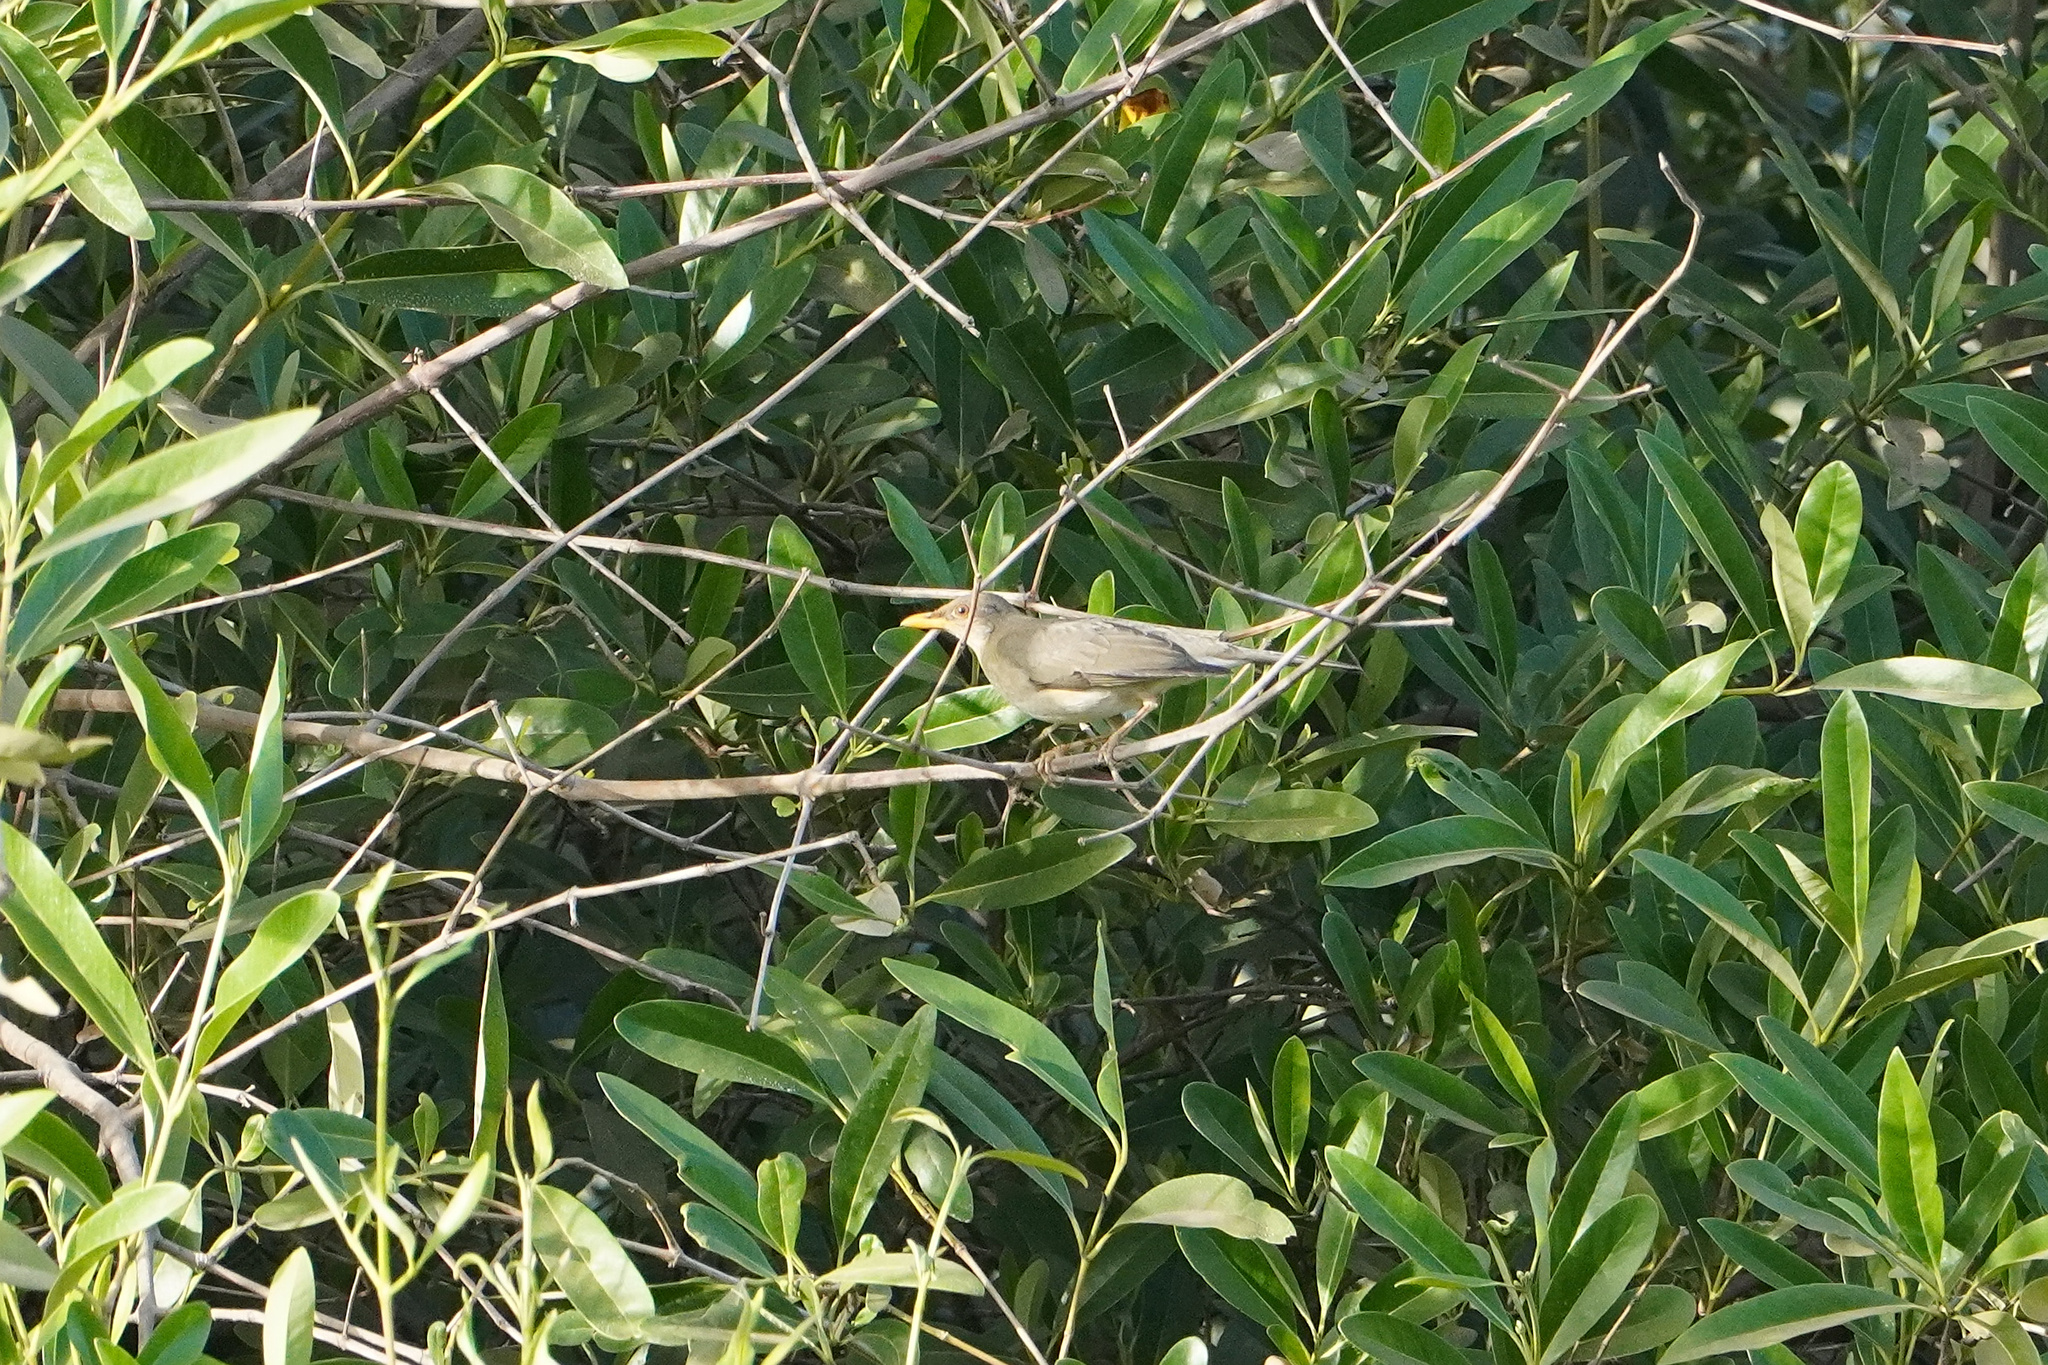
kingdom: Animalia
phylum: Chordata
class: Aves
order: Passeriformes
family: Turdidae
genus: Turdus
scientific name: Turdus pelios
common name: African thrush
